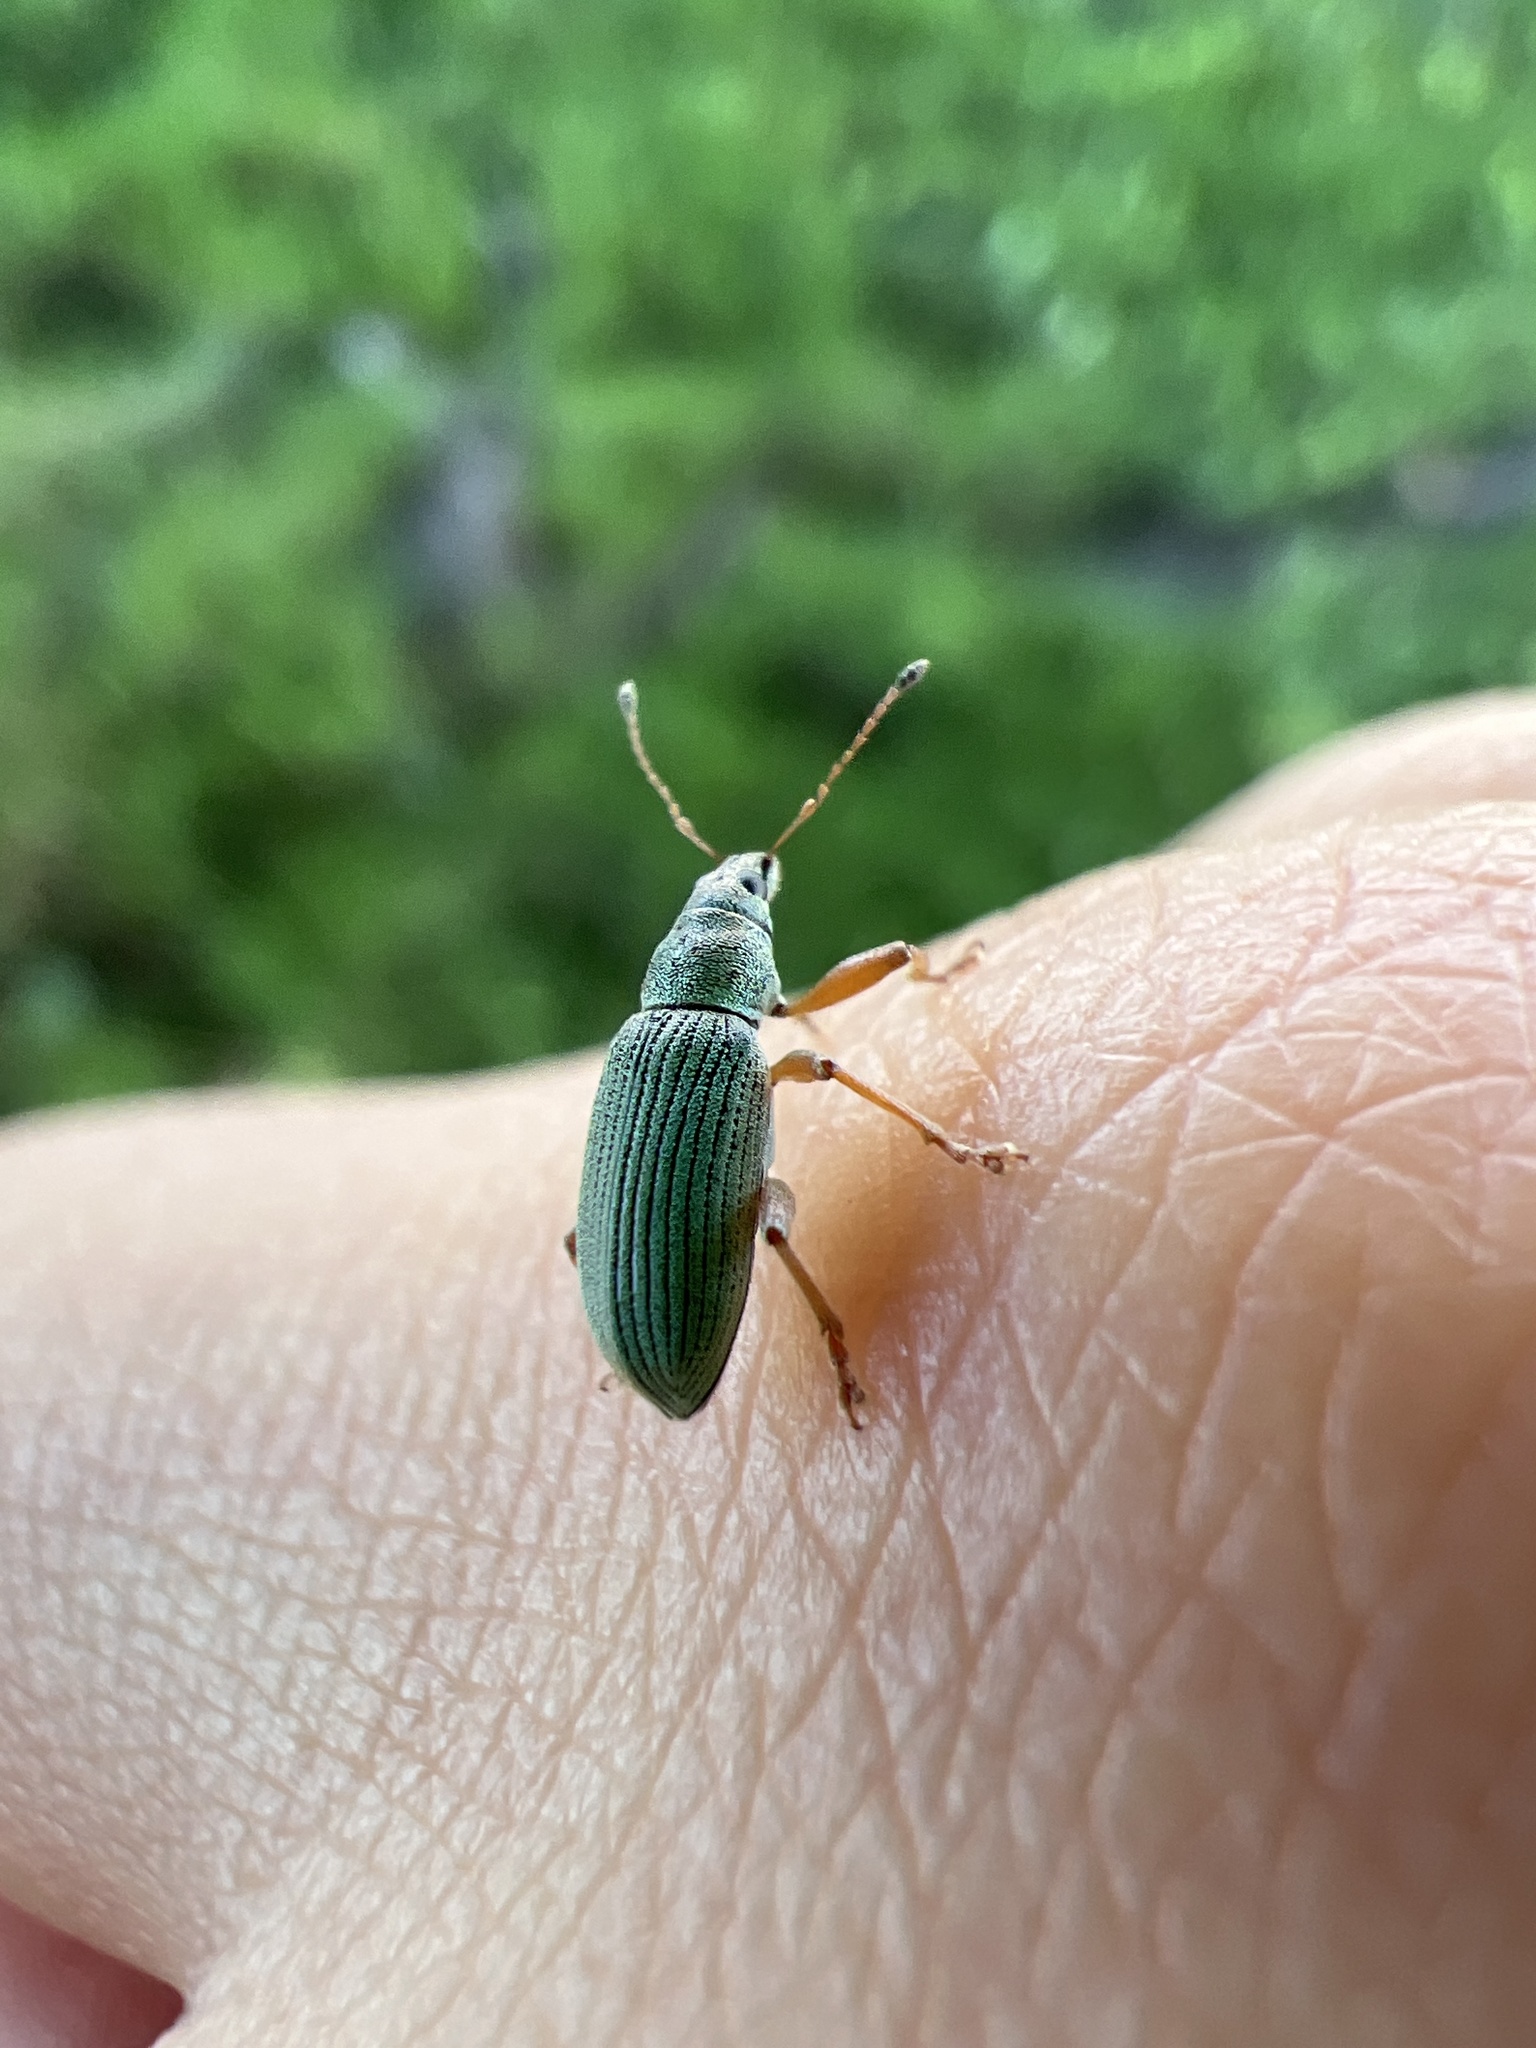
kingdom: Animalia
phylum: Arthropoda
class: Insecta
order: Coleoptera
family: Curculionidae
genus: Polydrusus
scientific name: Polydrusus formosus
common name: Weevil
